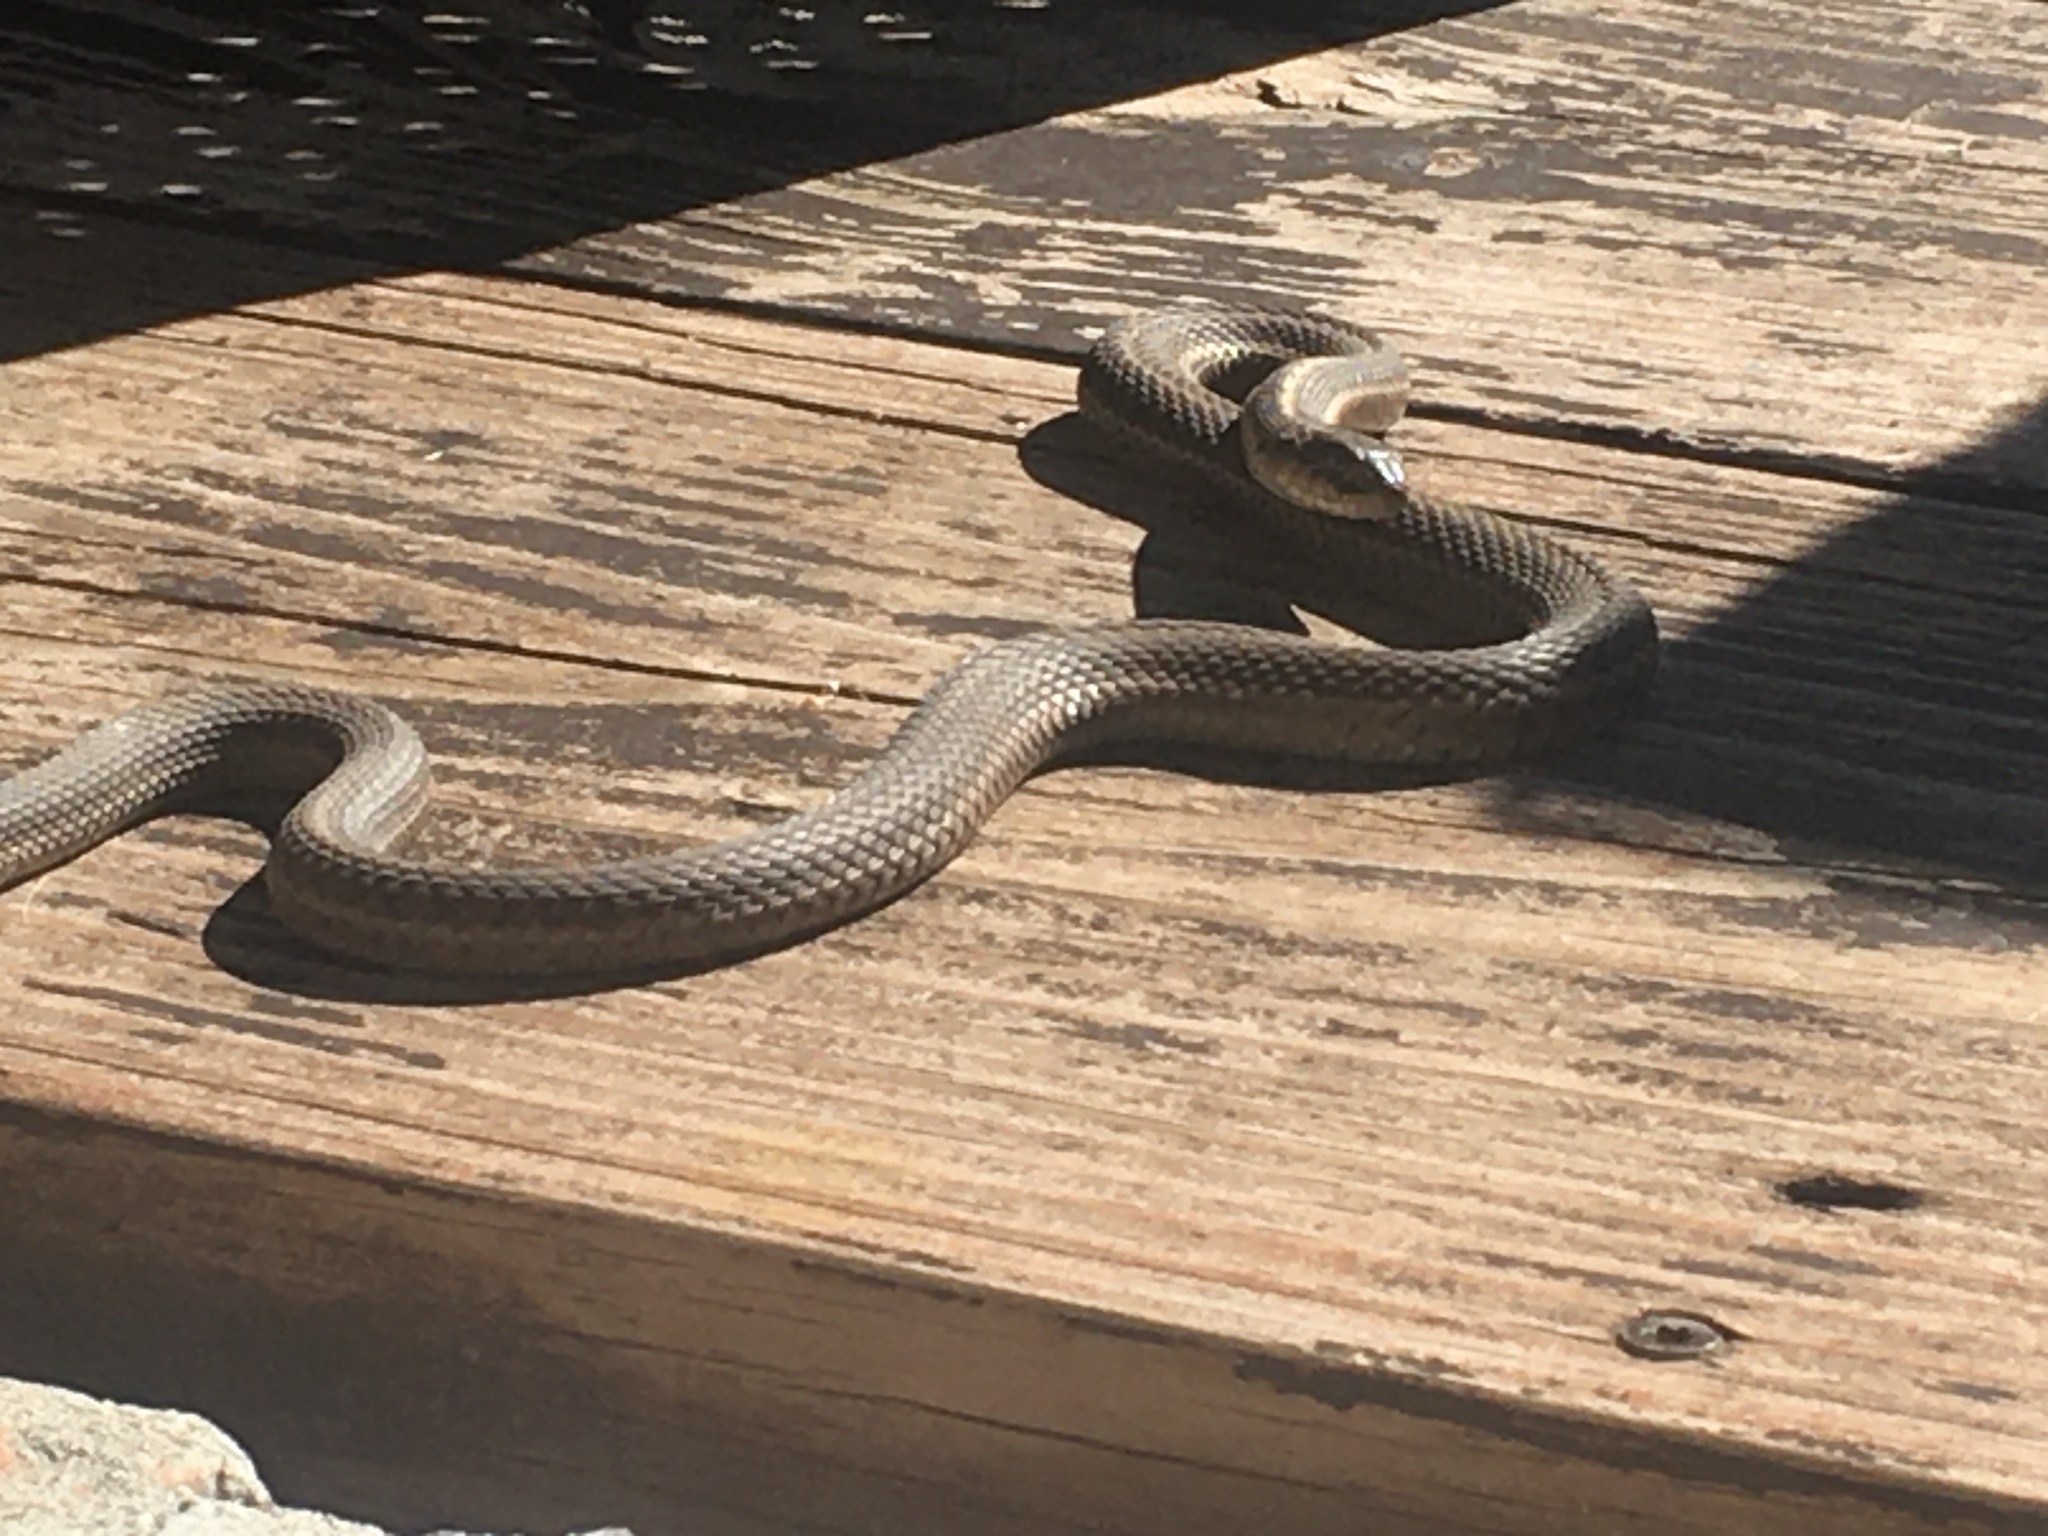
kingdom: Animalia
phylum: Chordata
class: Squamata
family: Colubridae
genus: Thamnophis
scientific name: Thamnophis elegans
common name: Western terrestrial garter snake
